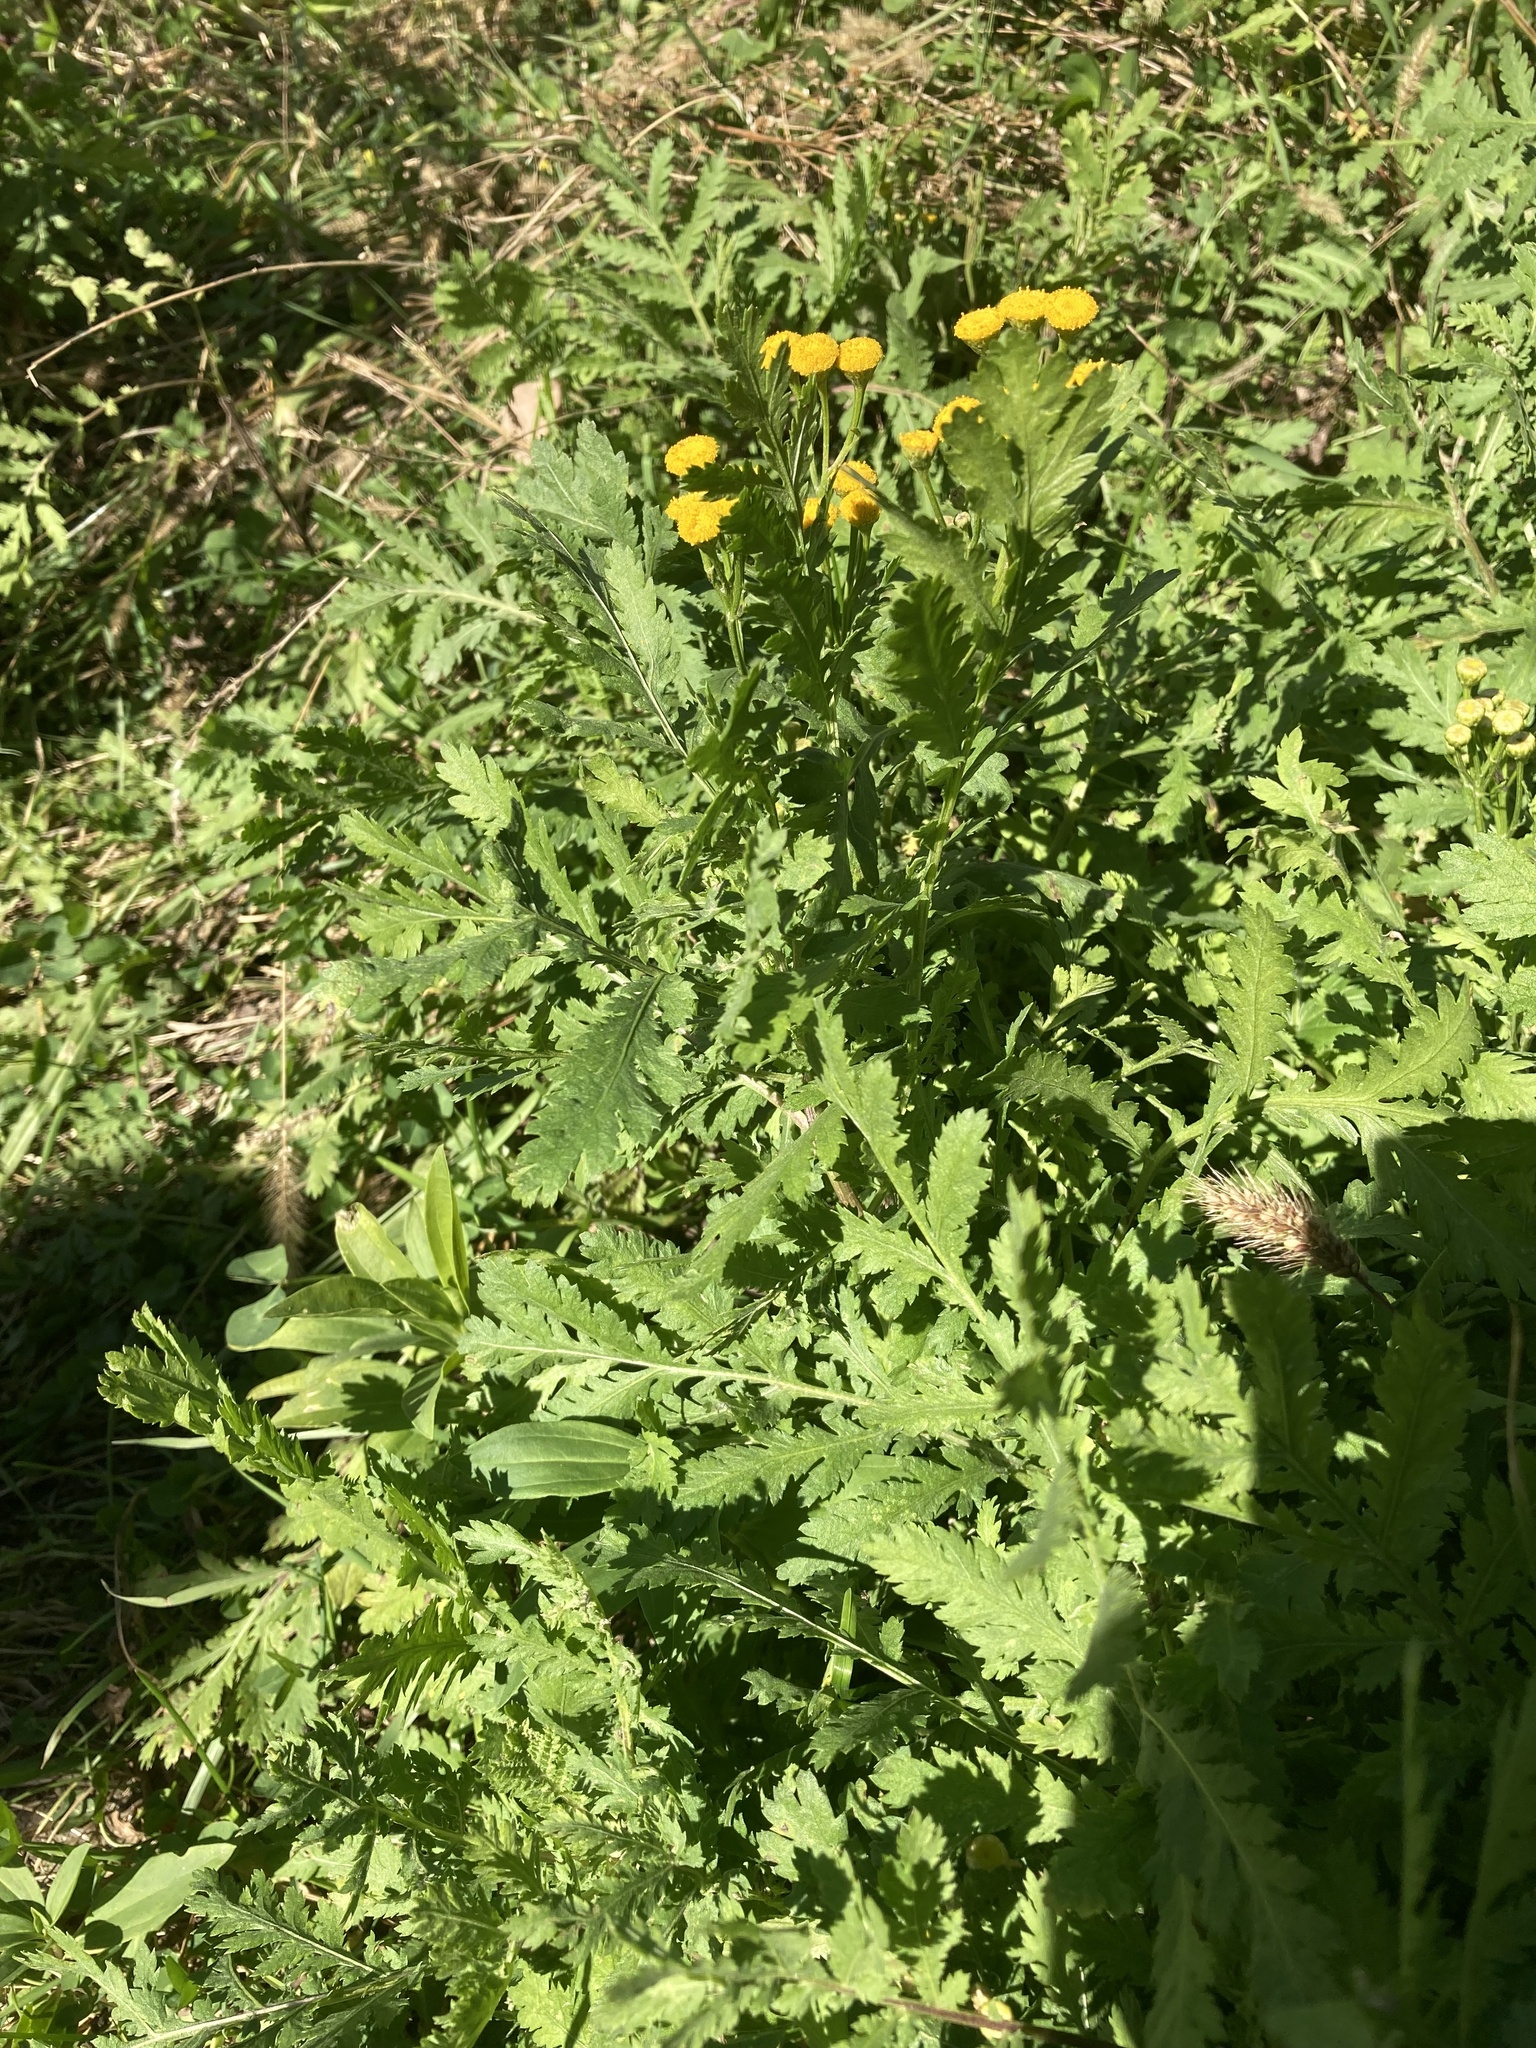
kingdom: Plantae
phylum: Tracheophyta
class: Magnoliopsida
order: Asterales
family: Asteraceae
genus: Tanacetum
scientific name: Tanacetum vulgare
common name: Common tansy
